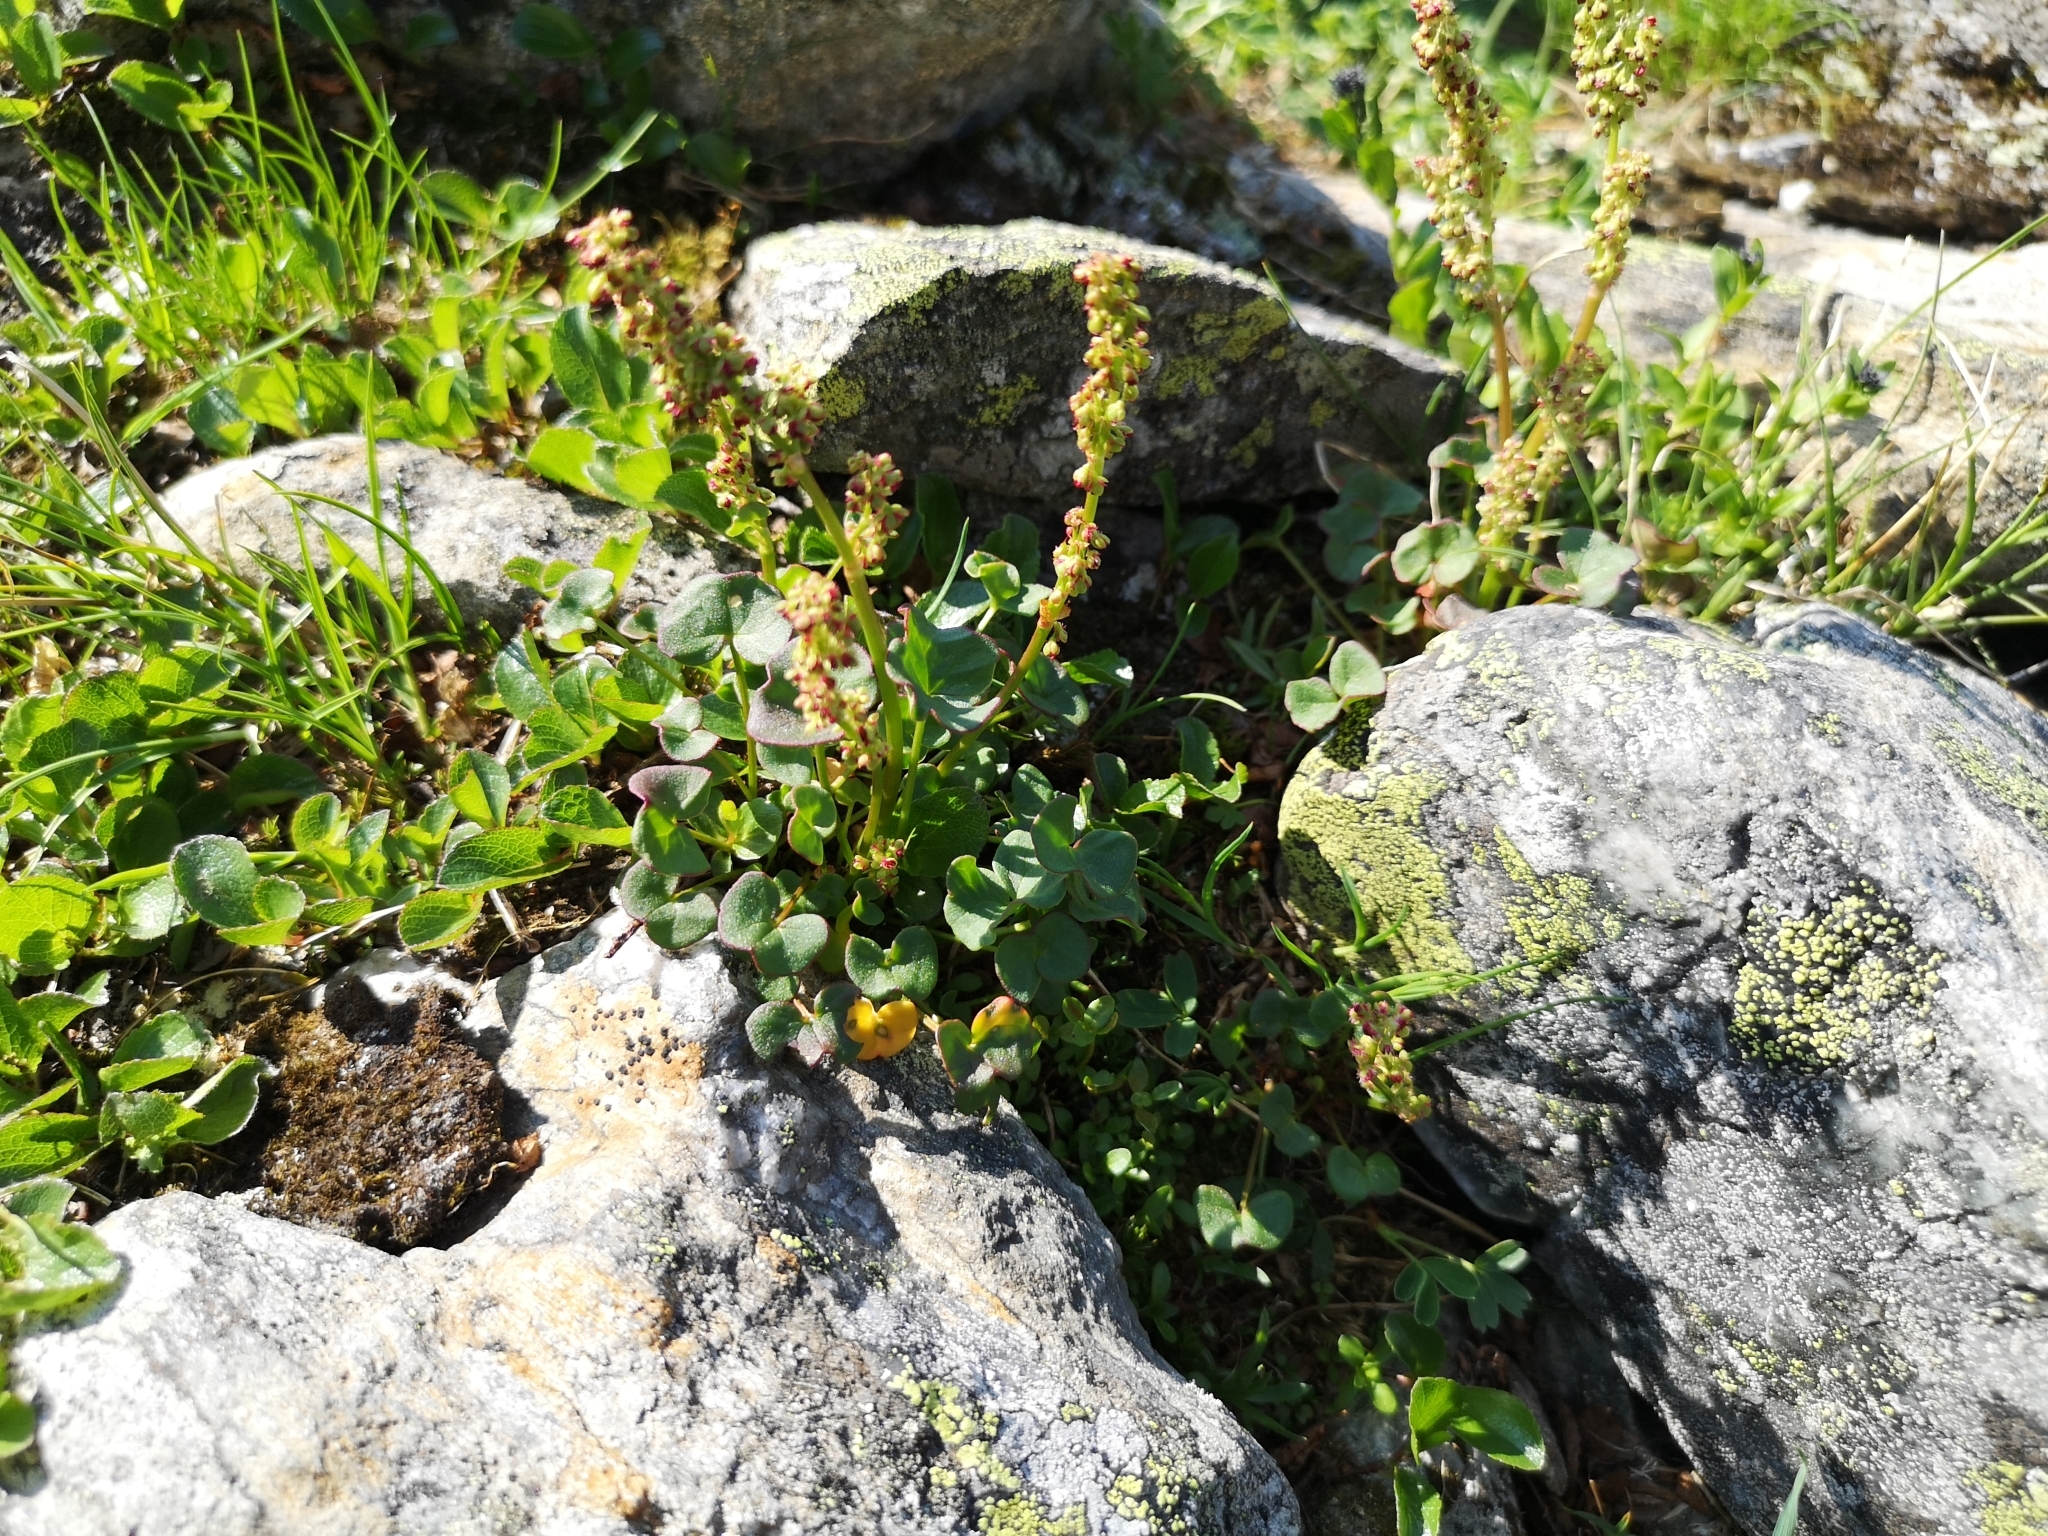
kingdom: Plantae
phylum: Tracheophyta
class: Magnoliopsida
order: Caryophyllales
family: Polygonaceae
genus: Oxyria
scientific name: Oxyria digyna
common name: Alpine mountain-sorrel
